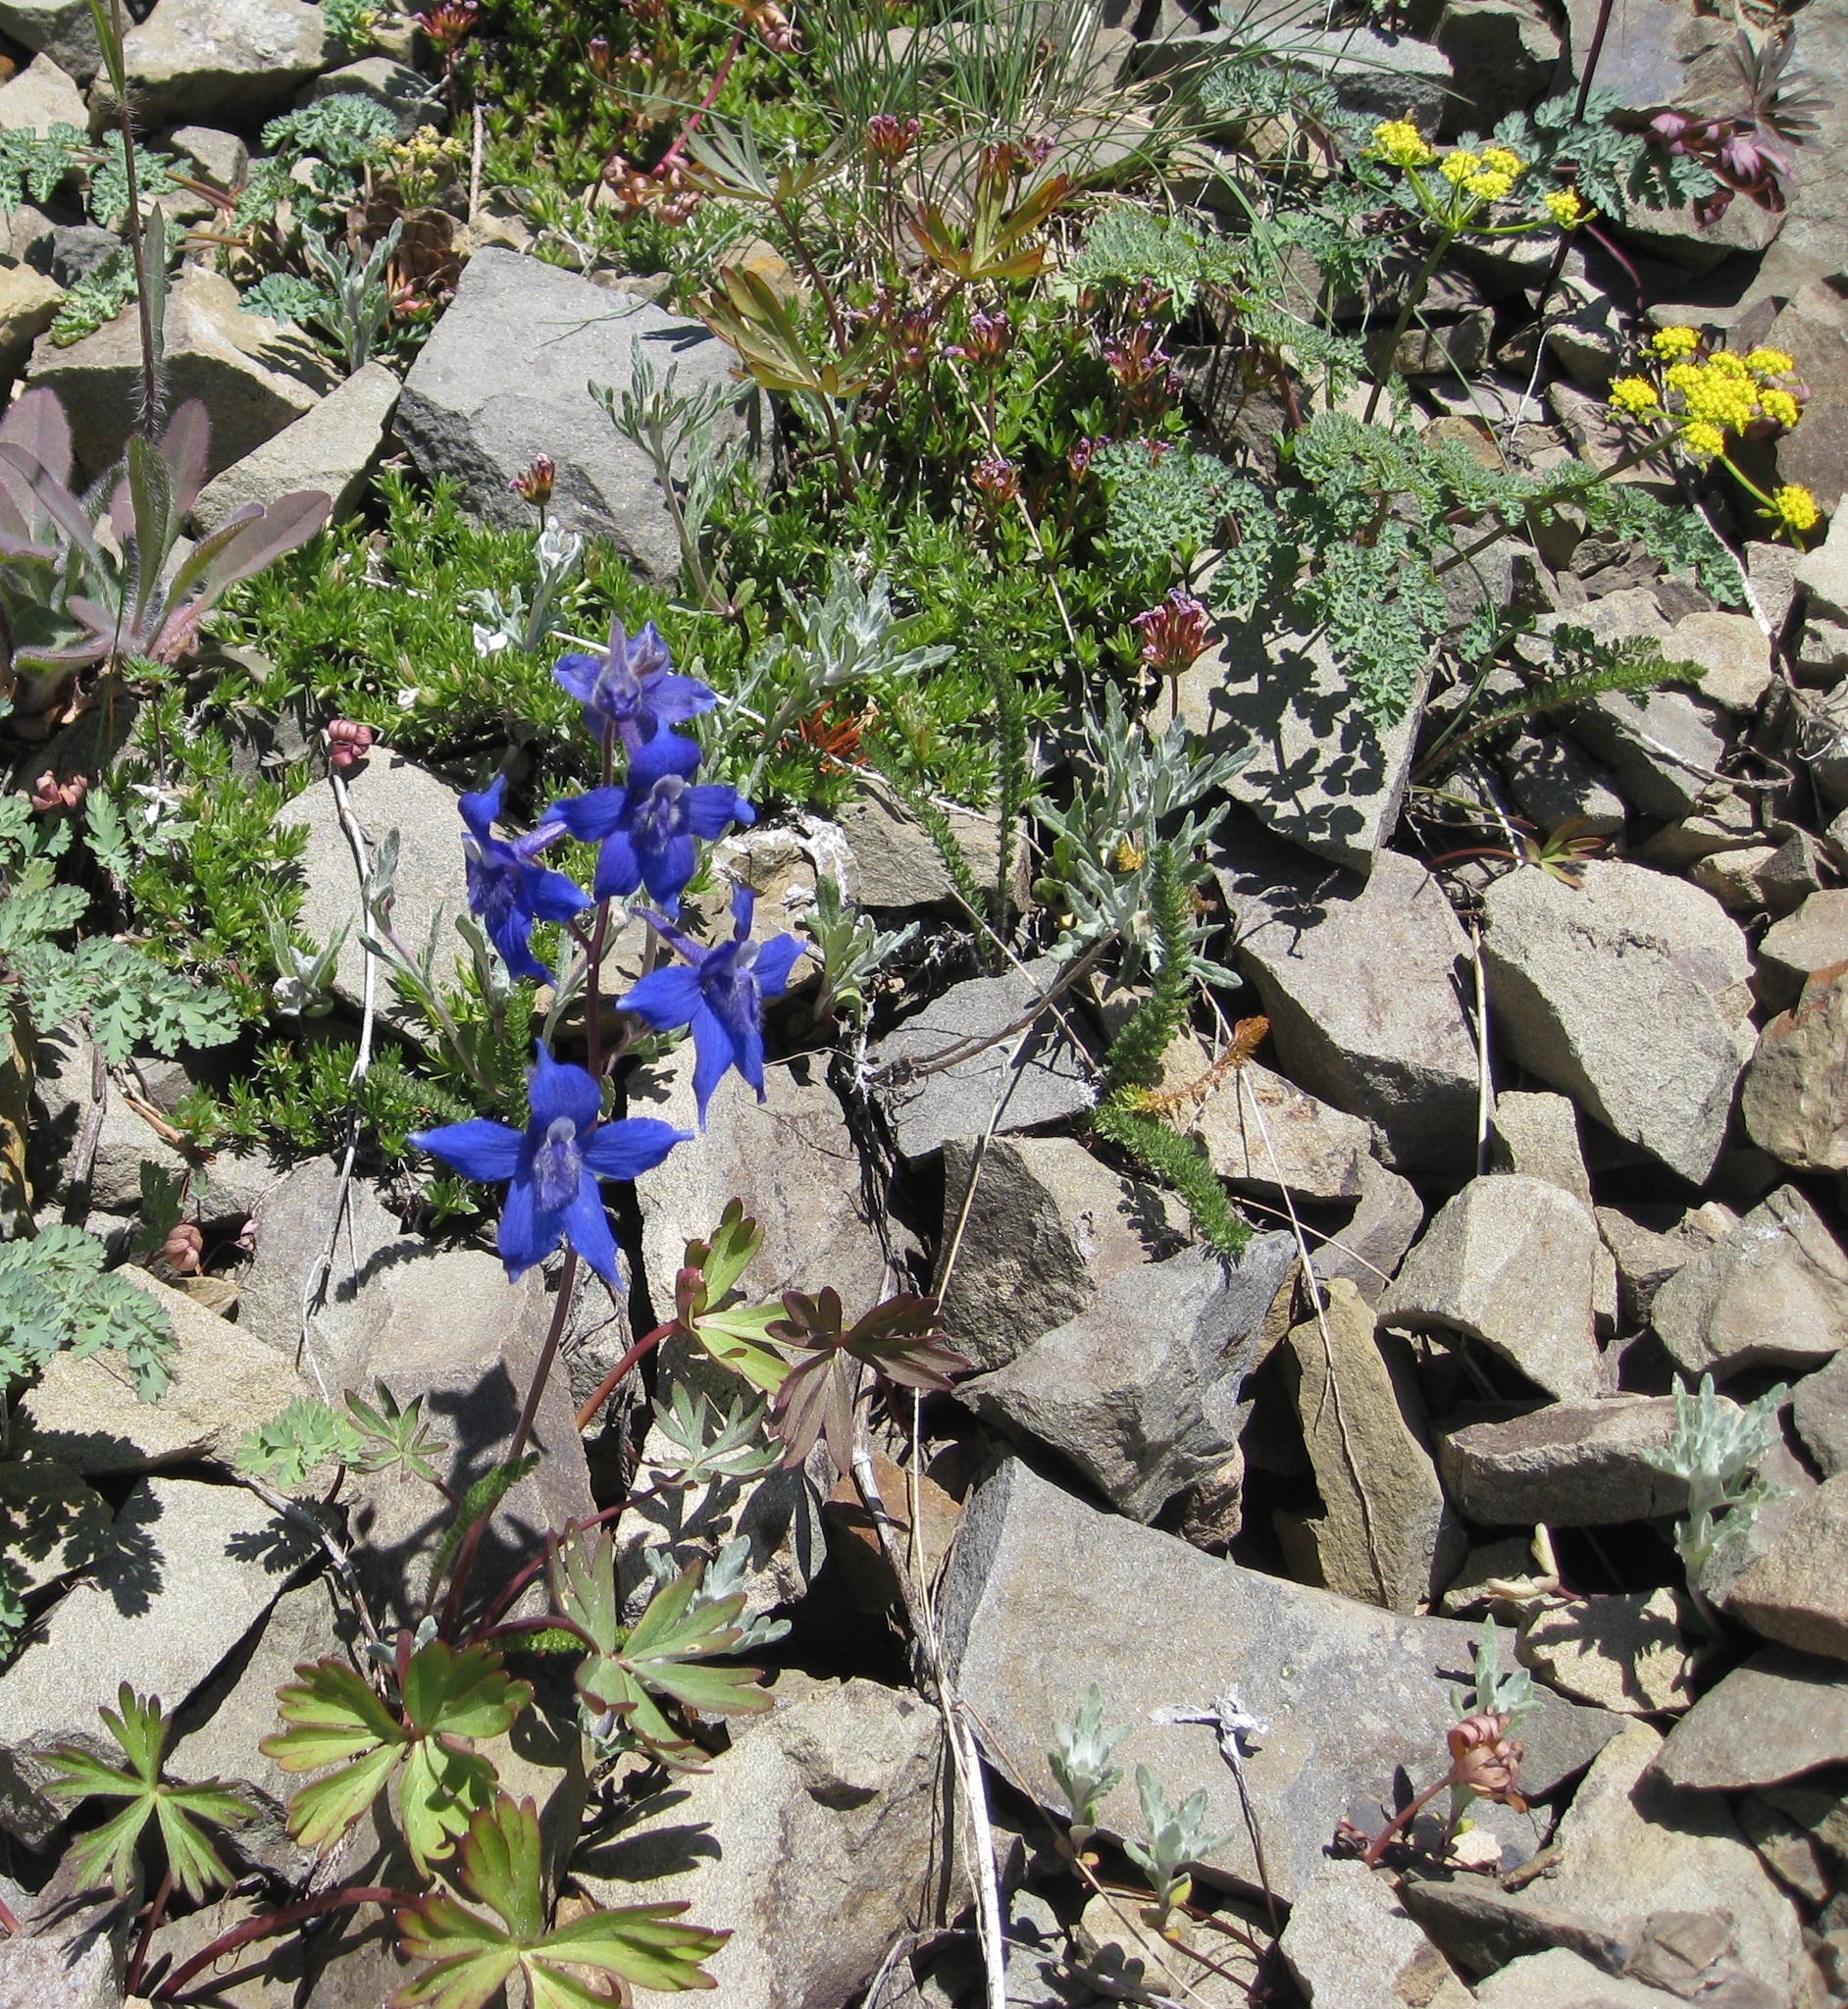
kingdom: Plantae
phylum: Tracheophyta
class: Magnoliopsida
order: Ranunculales
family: Ranunculaceae
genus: Delphinium
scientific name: Delphinium glareosum
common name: Olympic mountain larkspur
